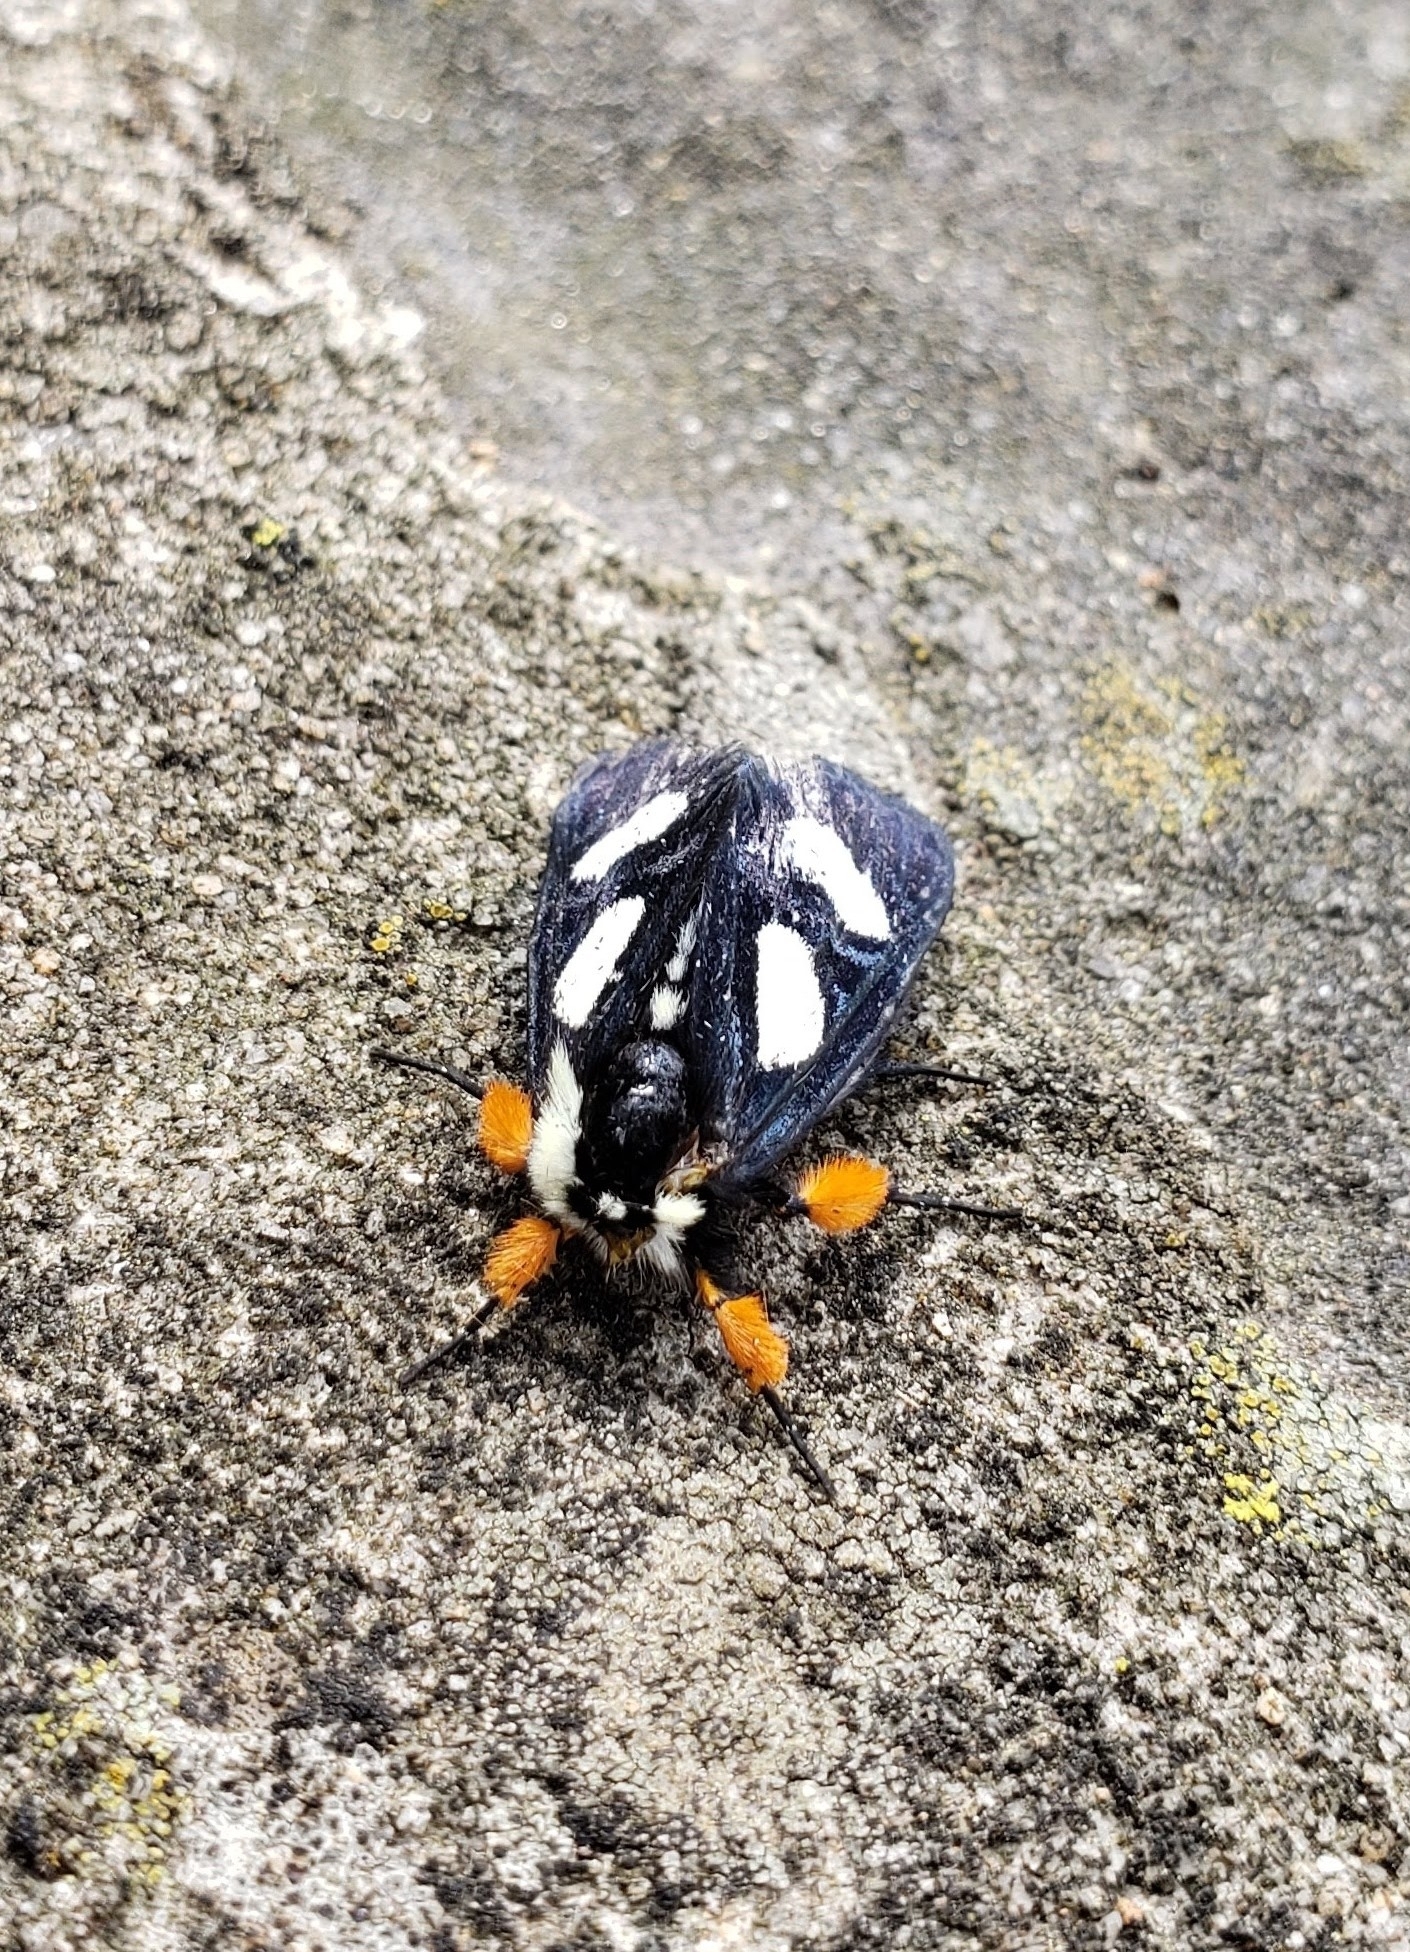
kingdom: Animalia
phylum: Arthropoda
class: Insecta
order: Lepidoptera
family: Noctuidae
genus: Alypia
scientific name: Alypia octomaculata
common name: Eight-spotted forester
